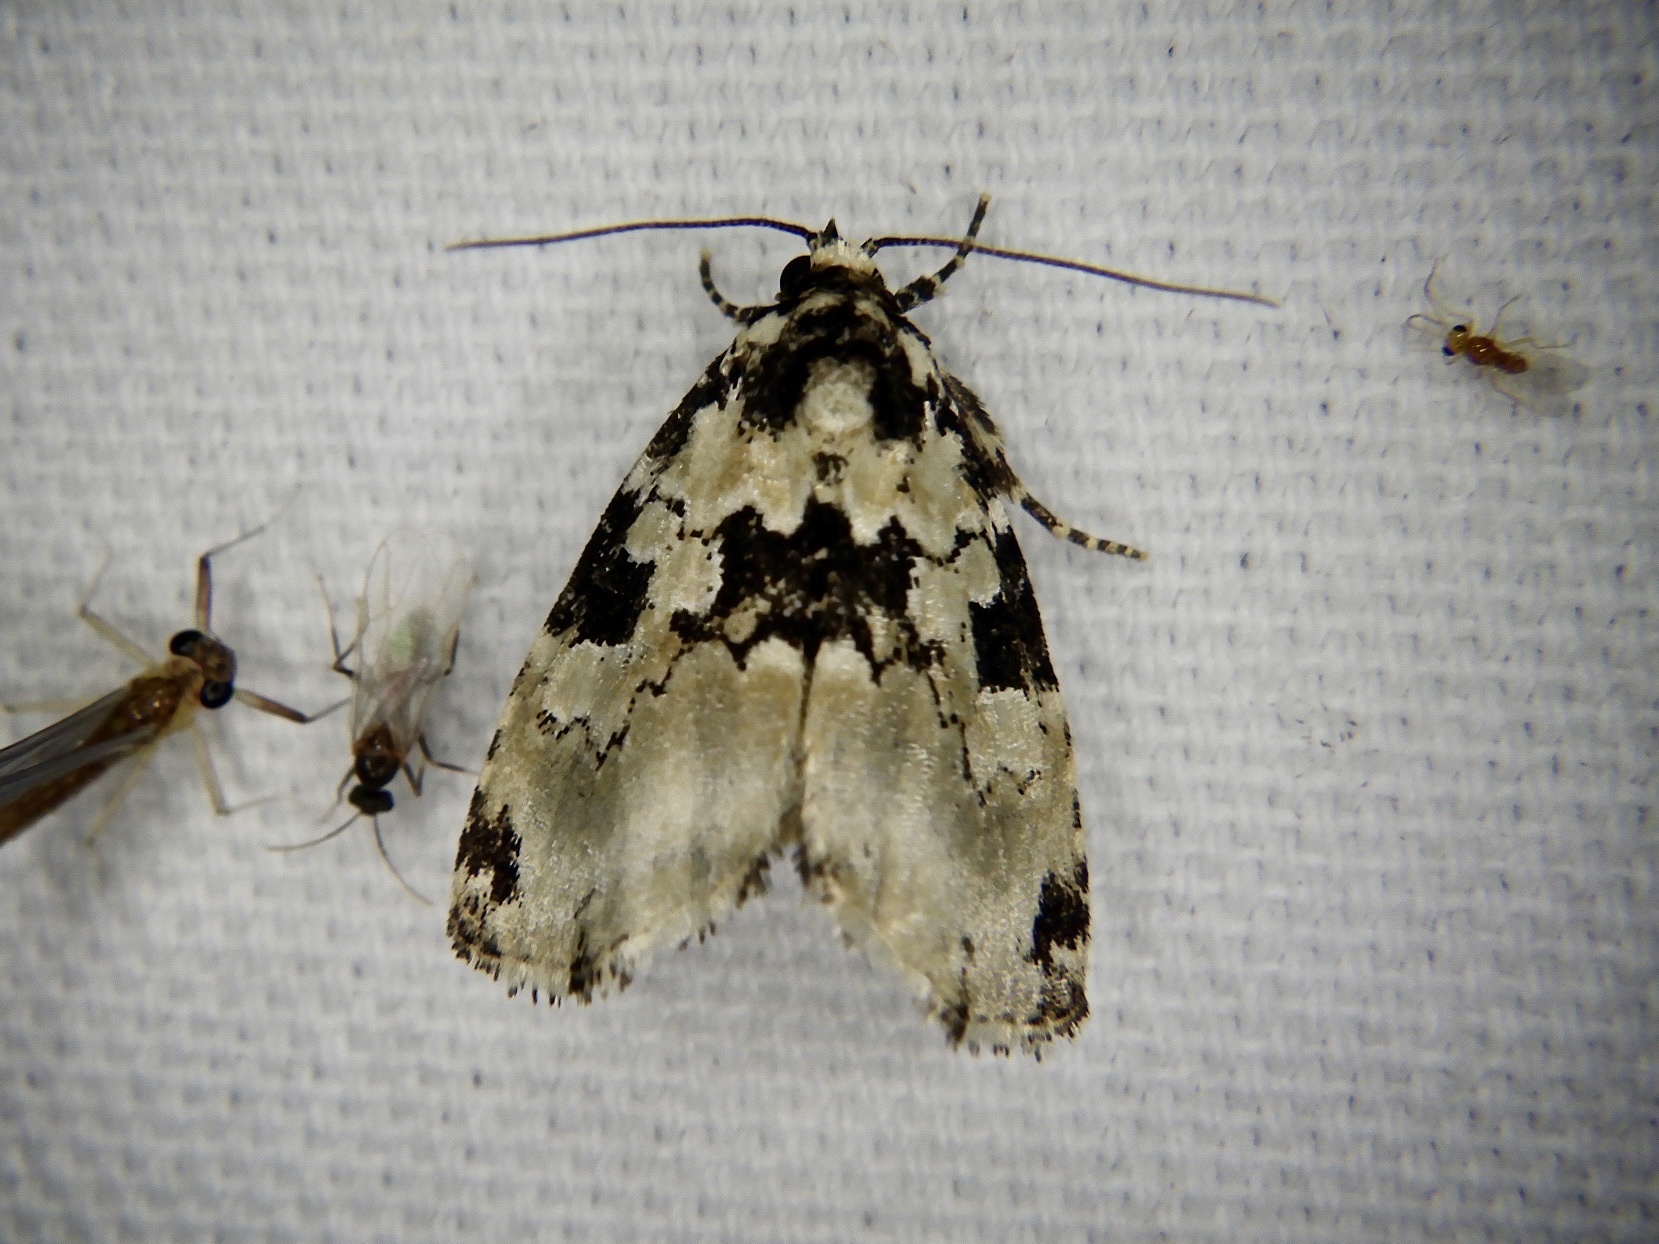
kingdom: Animalia
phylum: Arthropoda
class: Insecta
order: Lepidoptera
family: Erebidae
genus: Koyaga
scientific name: Koyaga
